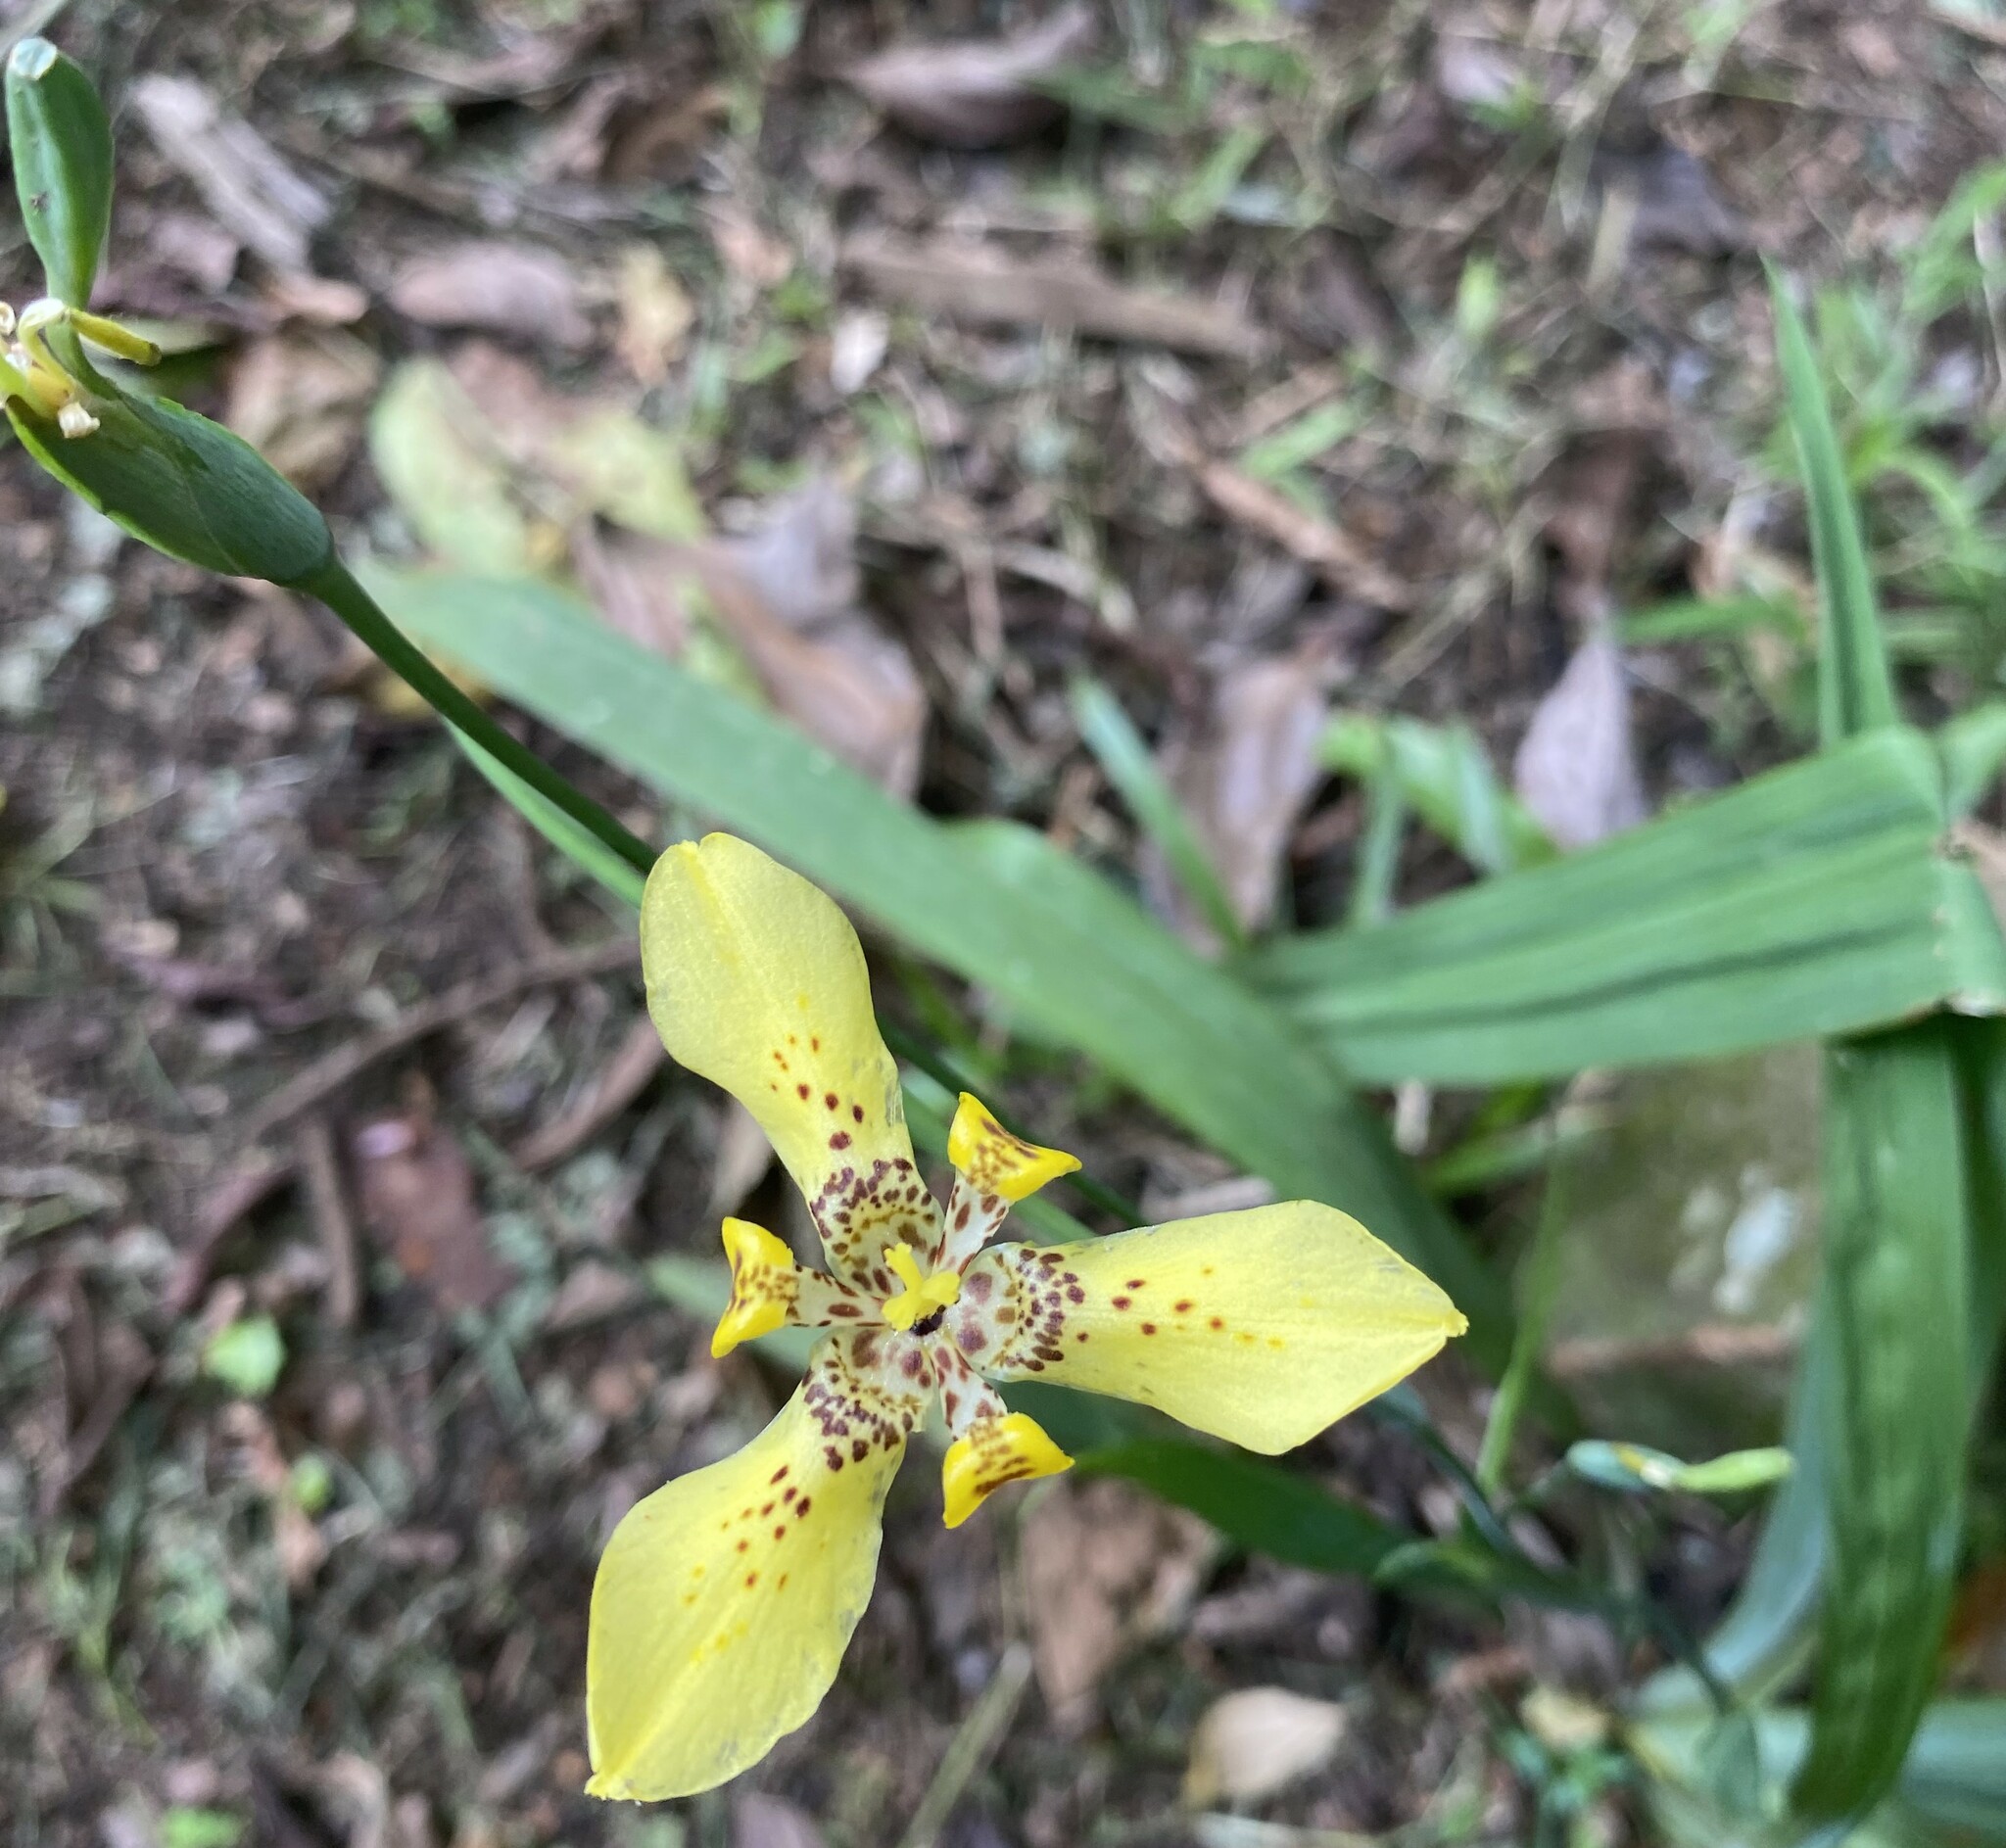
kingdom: Plantae
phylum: Tracheophyta
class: Liliopsida
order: Asparagales
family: Iridaceae
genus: Trimezia
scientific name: Trimezia steyermarkii
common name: Trimezia
